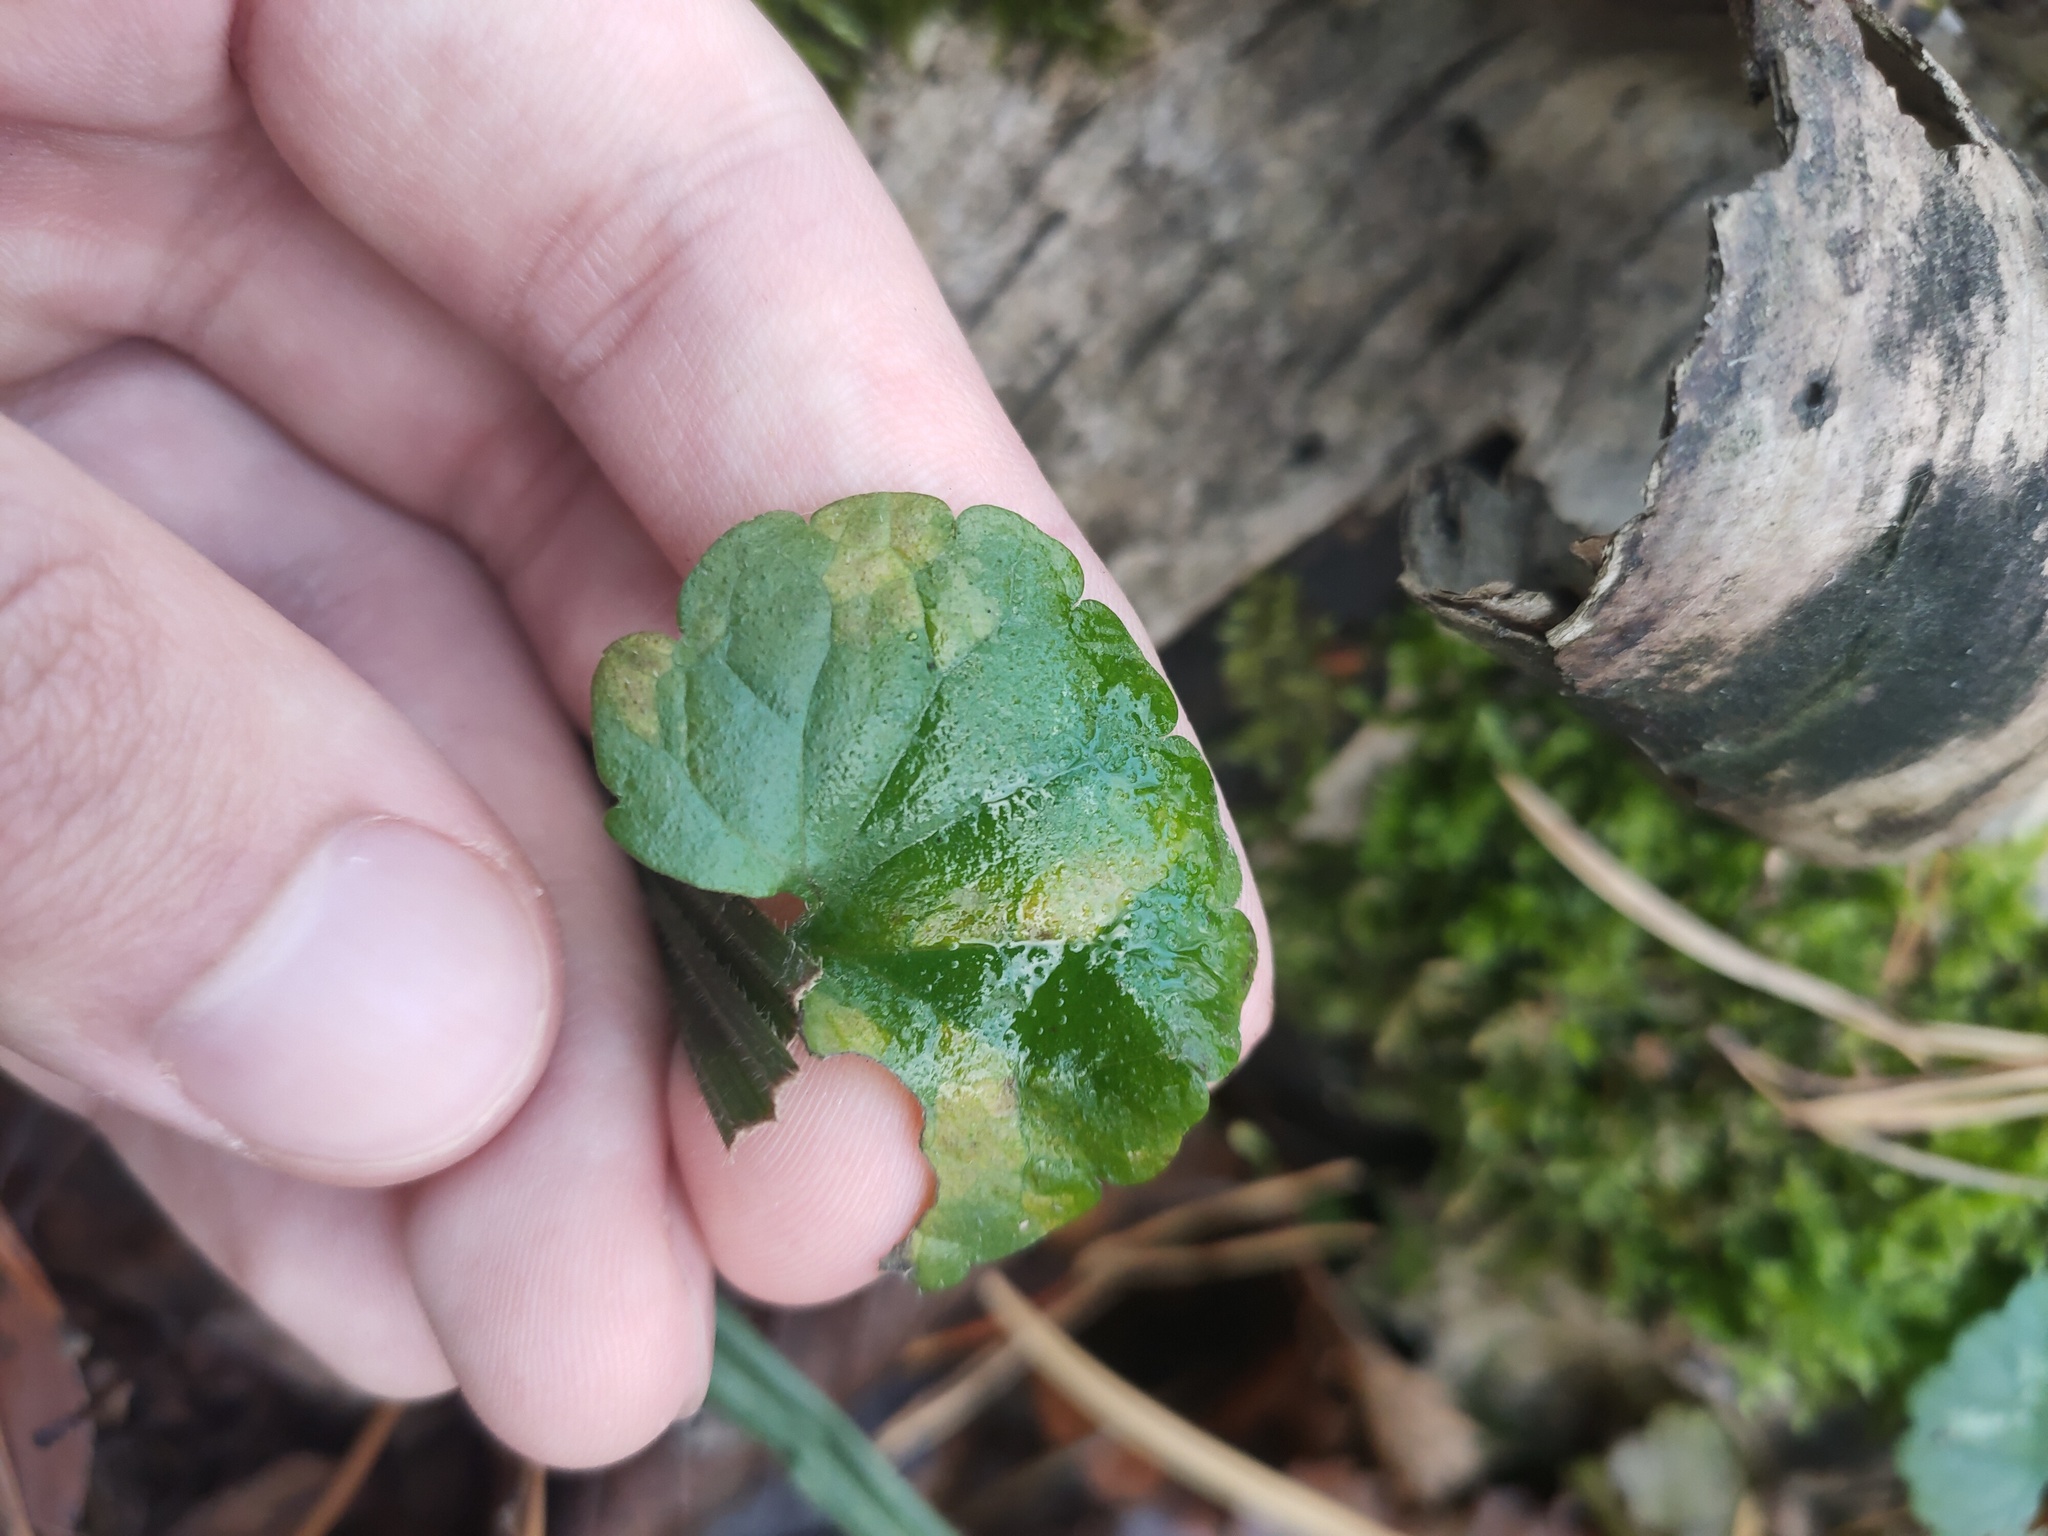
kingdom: Plantae
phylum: Tracheophyta
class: Magnoliopsida
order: Lamiales
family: Lamiaceae
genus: Glechoma
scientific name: Glechoma hederacea
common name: Ground ivy
